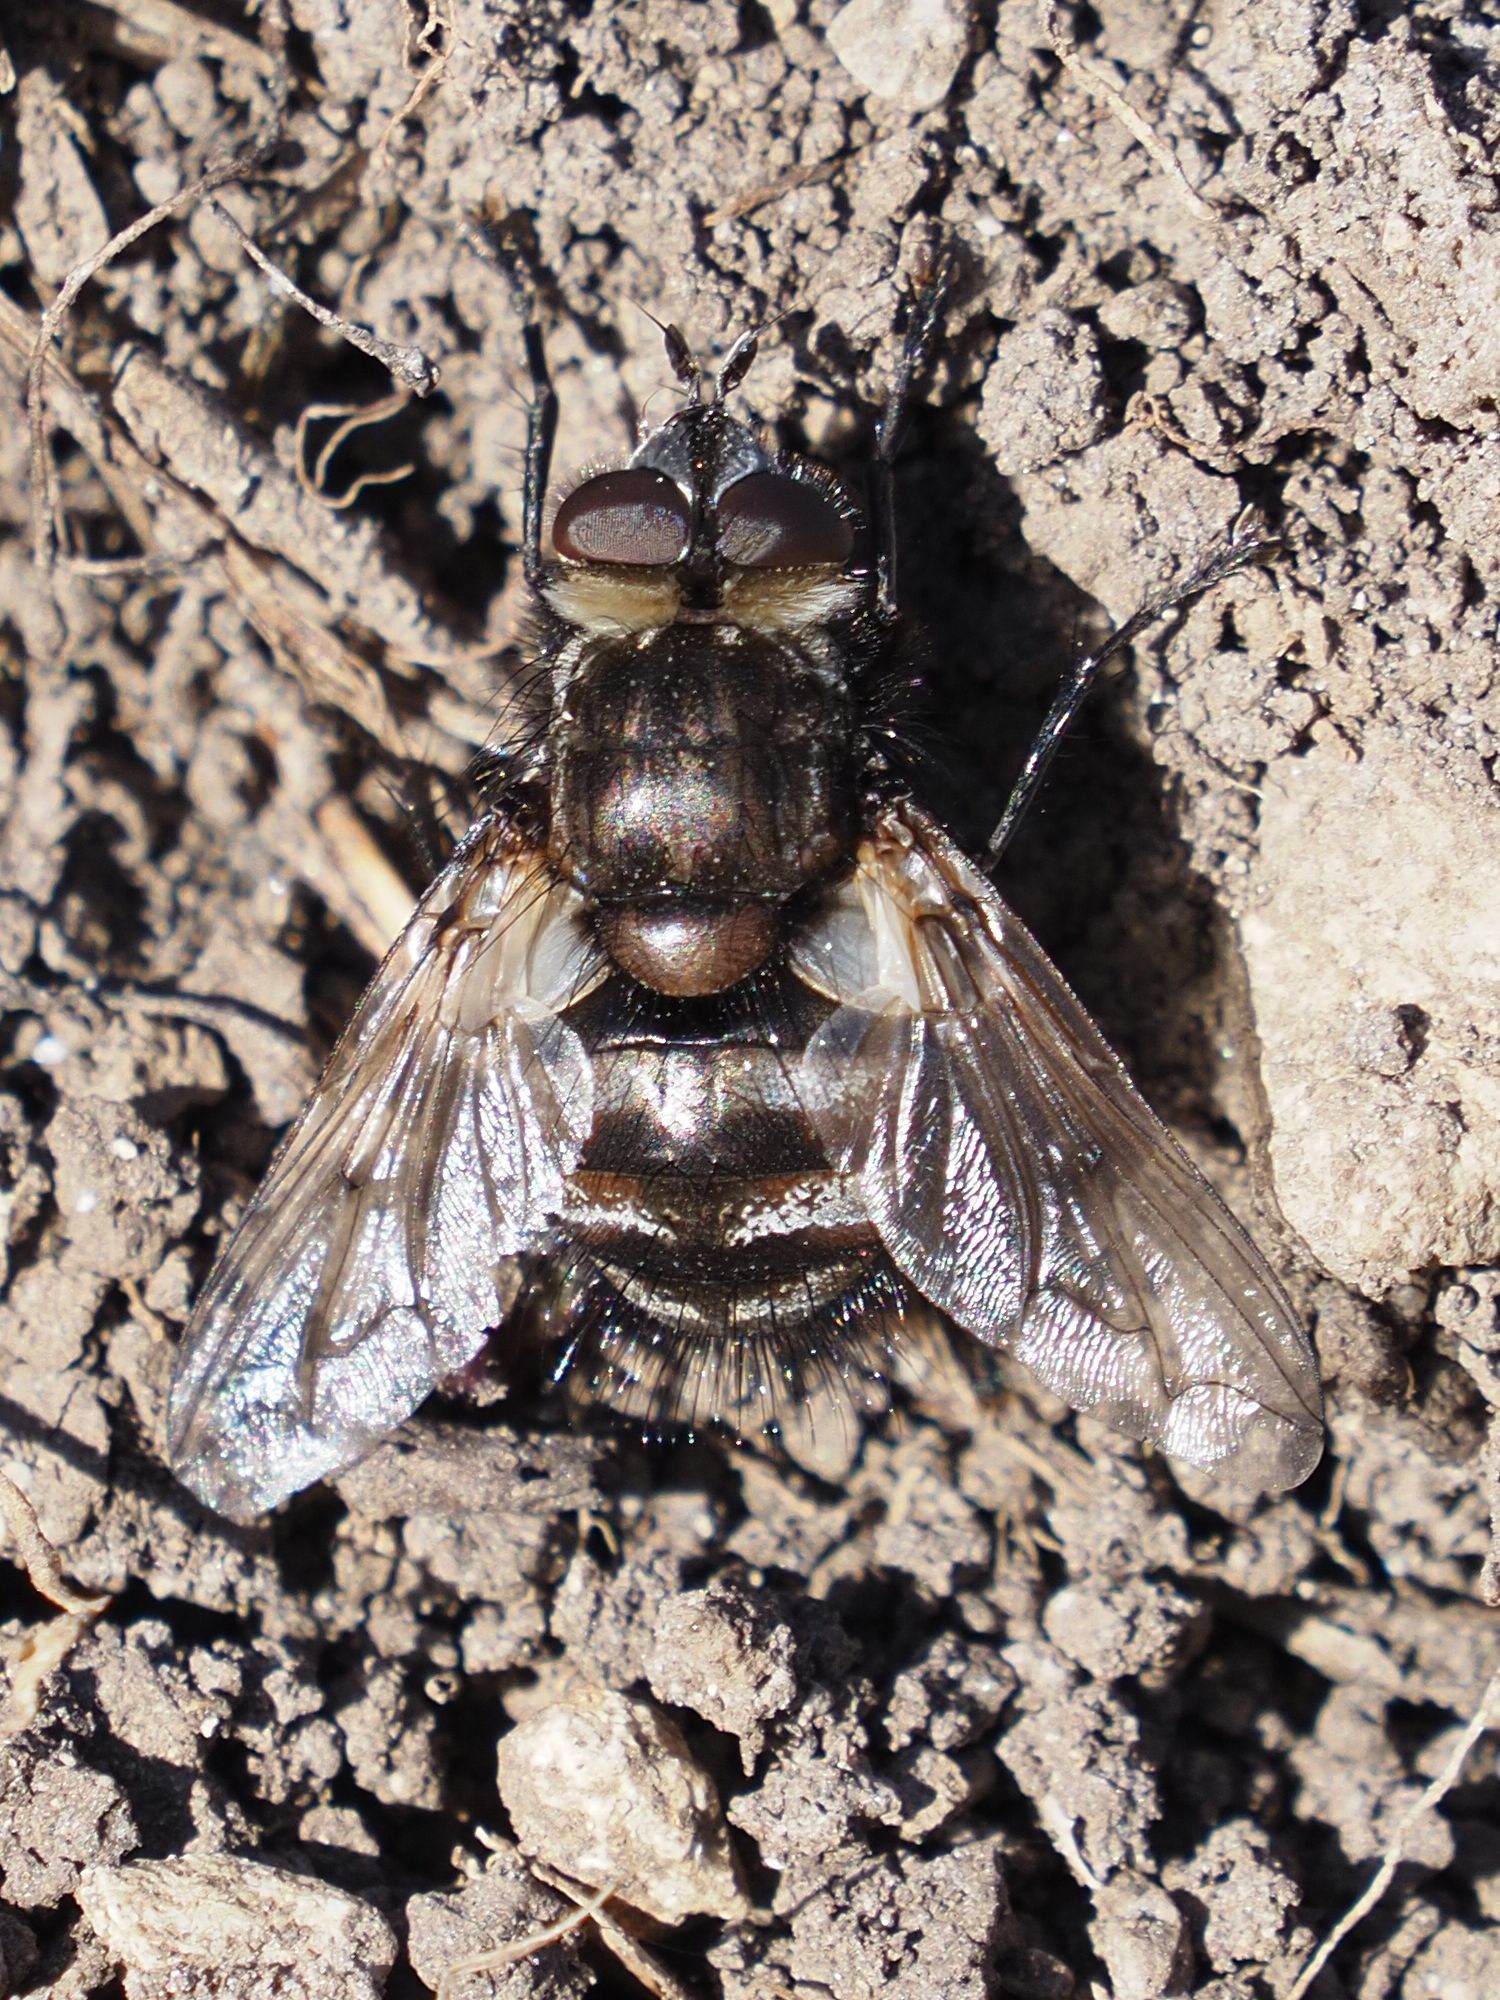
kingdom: Animalia
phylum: Arthropoda
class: Insecta
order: Diptera
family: Tachinidae
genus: Panzeria
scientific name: Panzeria puparum
